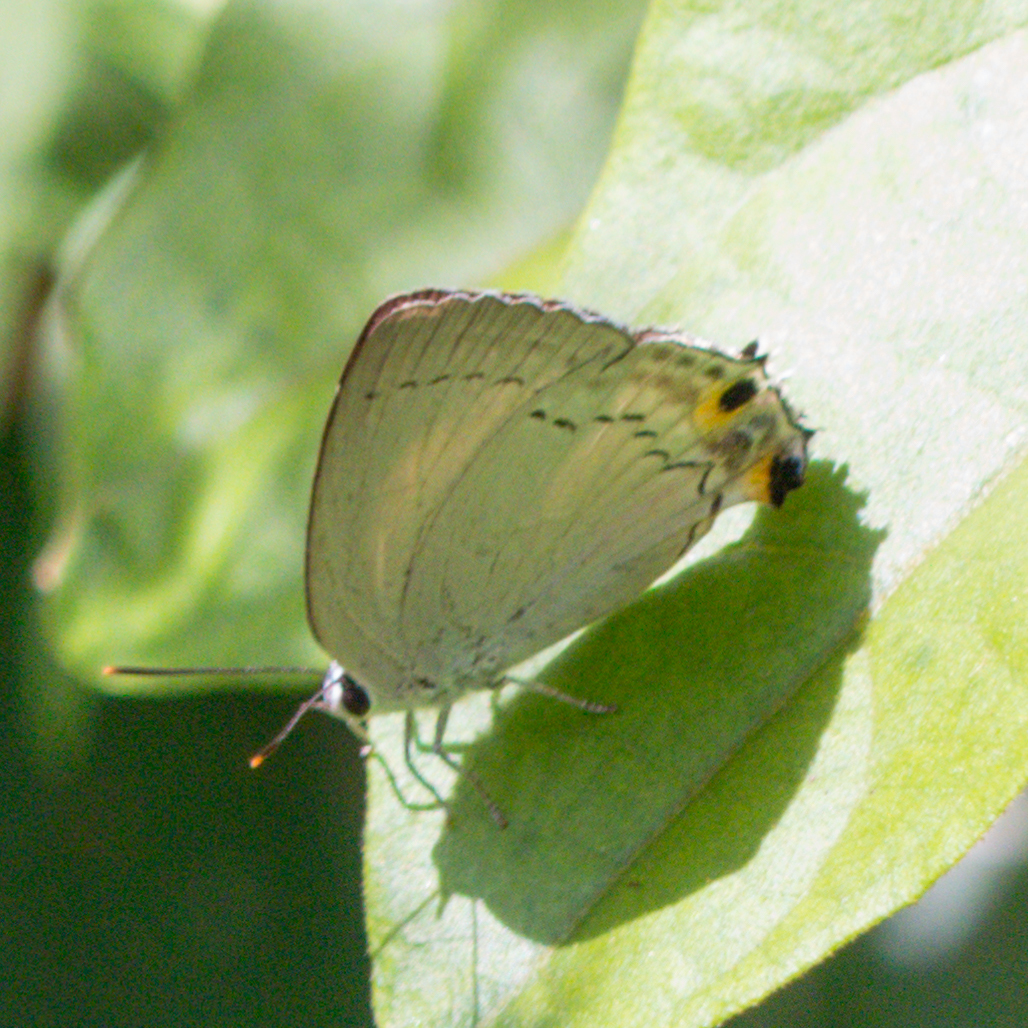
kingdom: Animalia
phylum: Arthropoda
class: Insecta
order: Lepidoptera
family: Lycaenidae
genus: Tajuria
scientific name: Tajuria cippus
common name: Peacock royal
